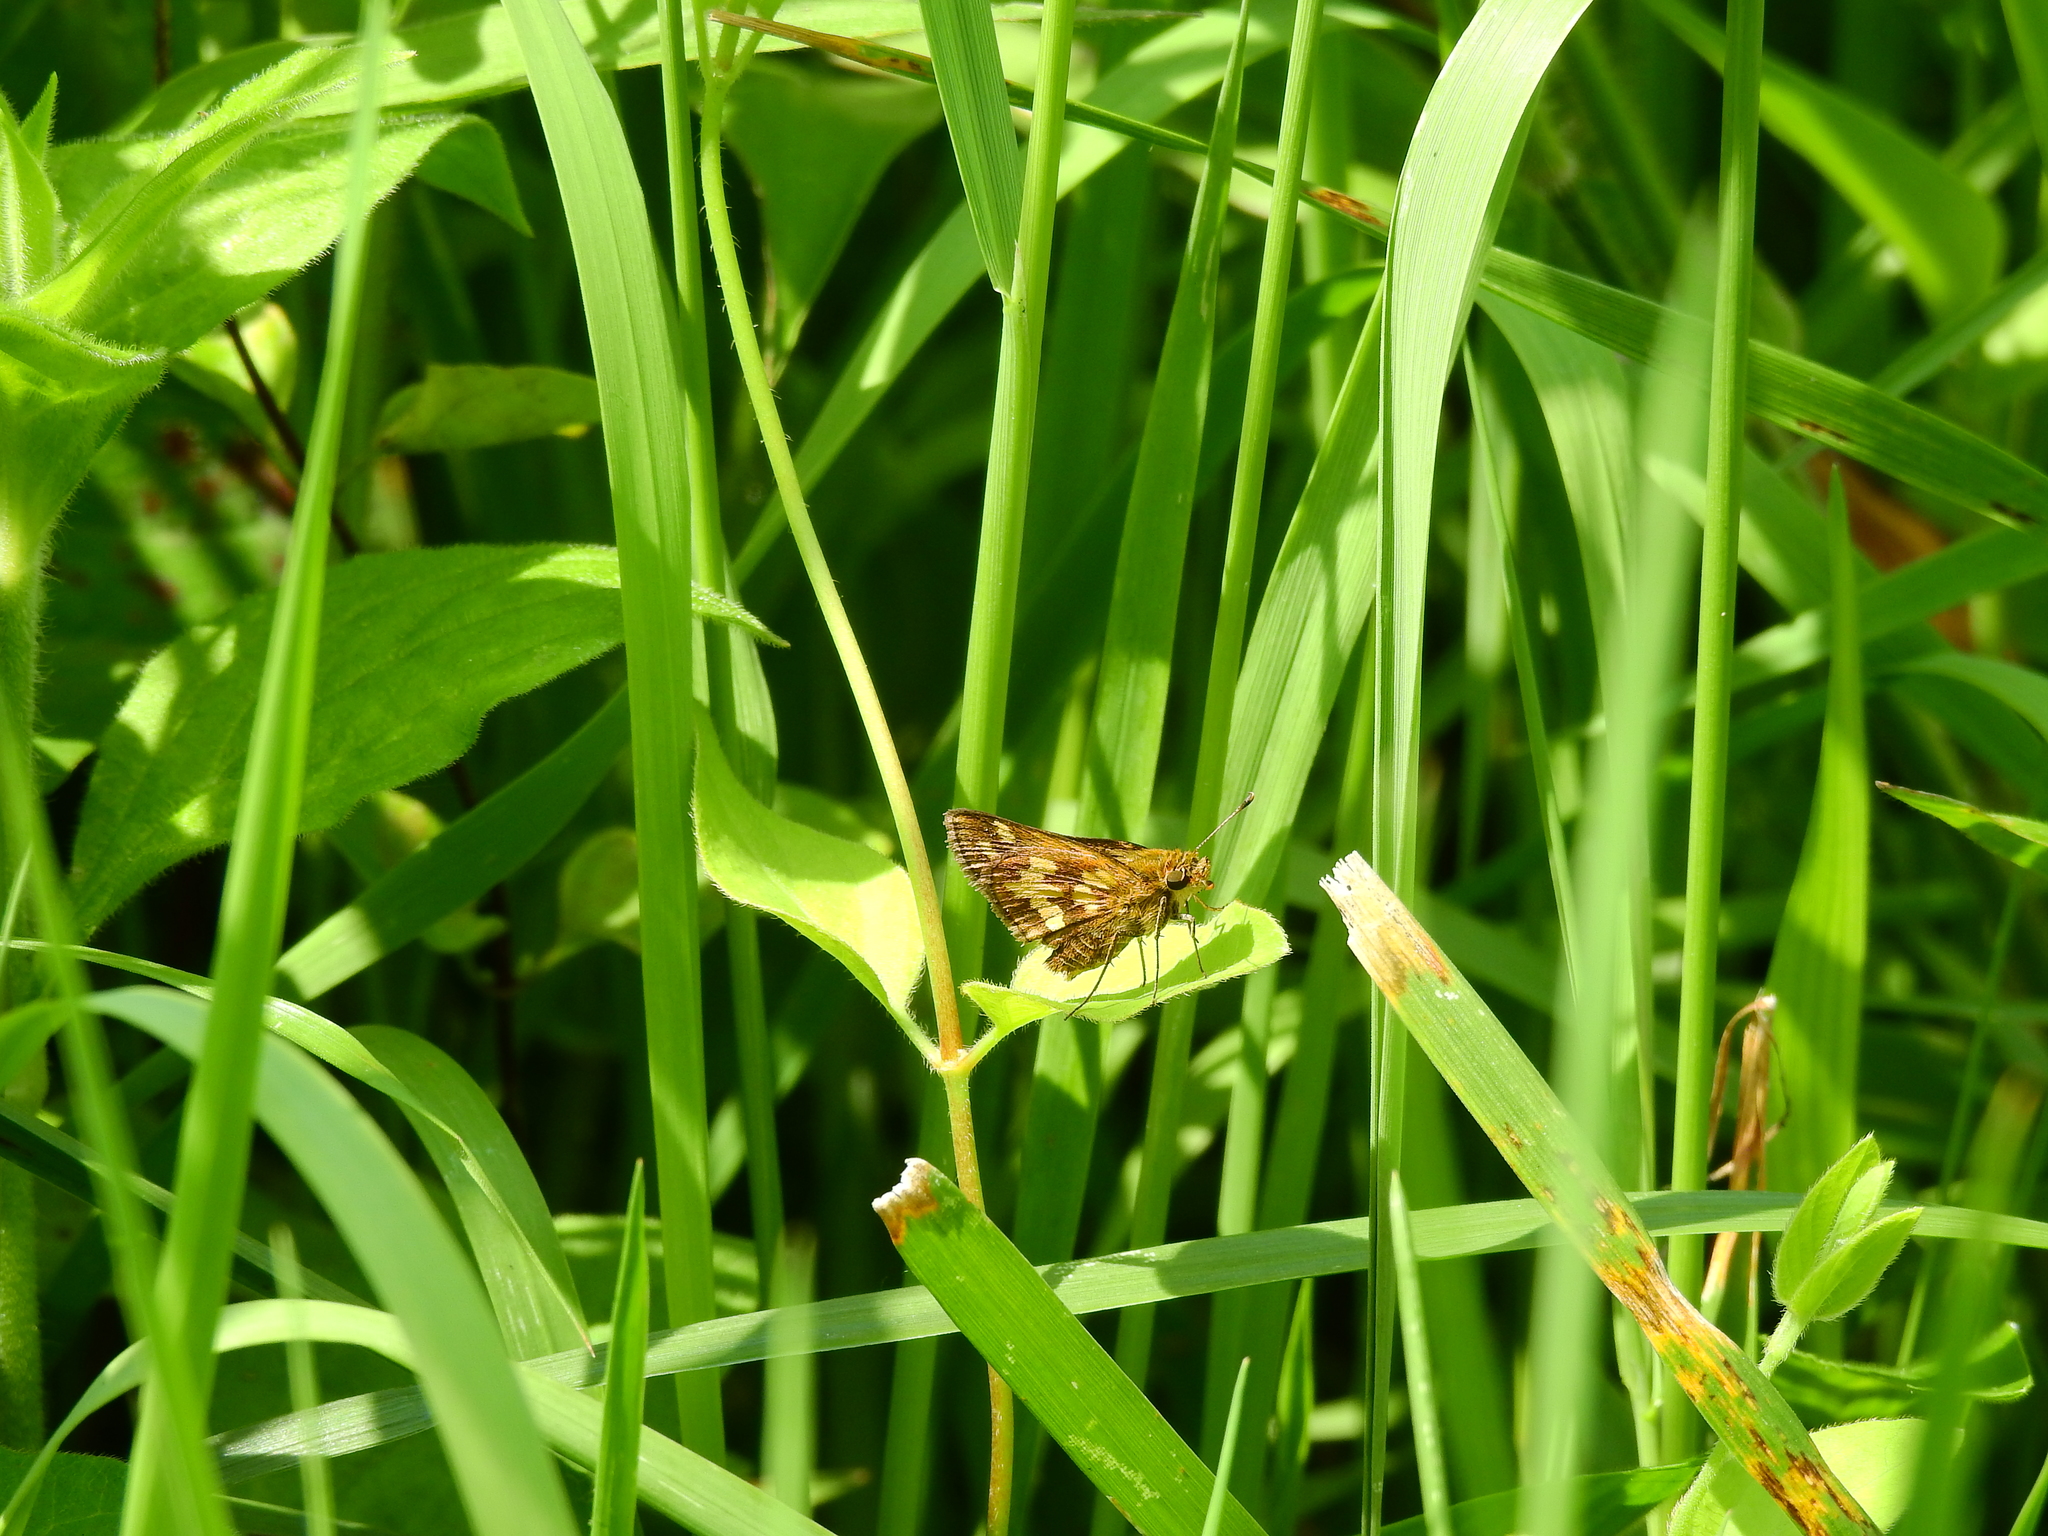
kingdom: Animalia
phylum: Arthropoda
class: Insecta
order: Lepidoptera
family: Hesperiidae
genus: Polites
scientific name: Polites coras
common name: Peck's skipper
